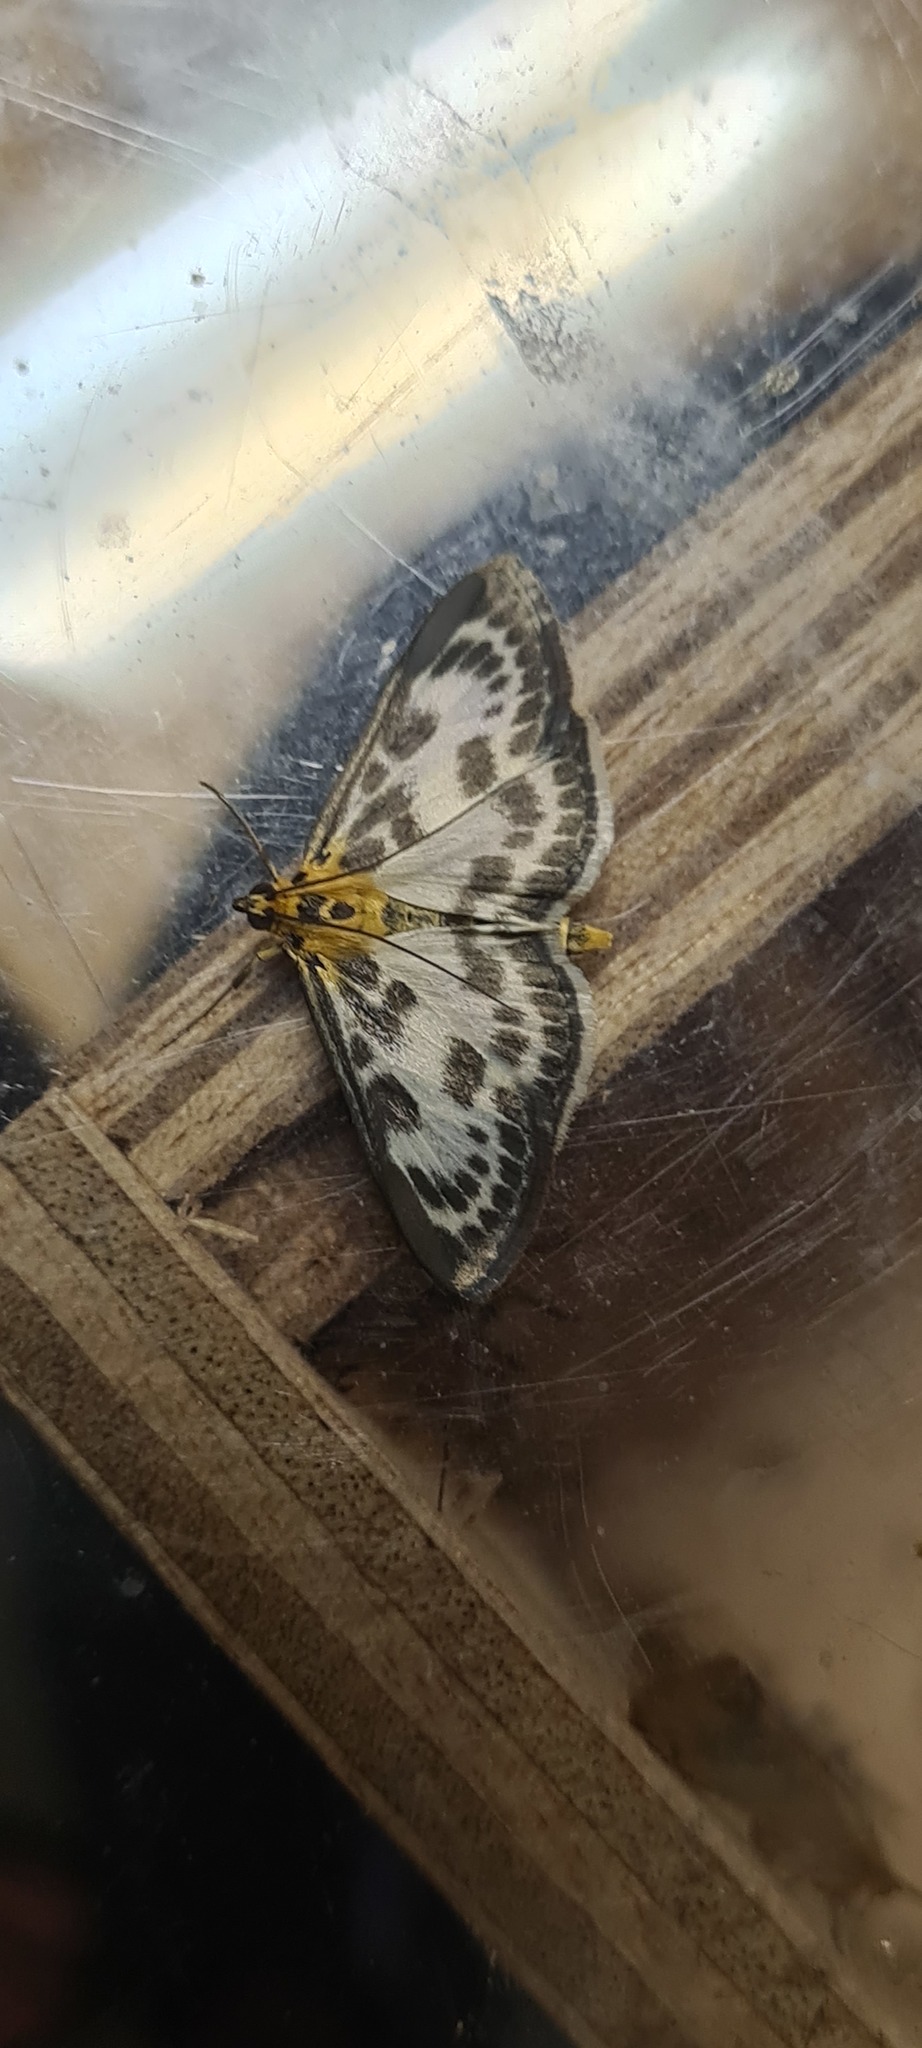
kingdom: Animalia
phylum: Arthropoda
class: Insecta
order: Lepidoptera
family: Crambidae
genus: Anania
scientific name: Anania hortulata
